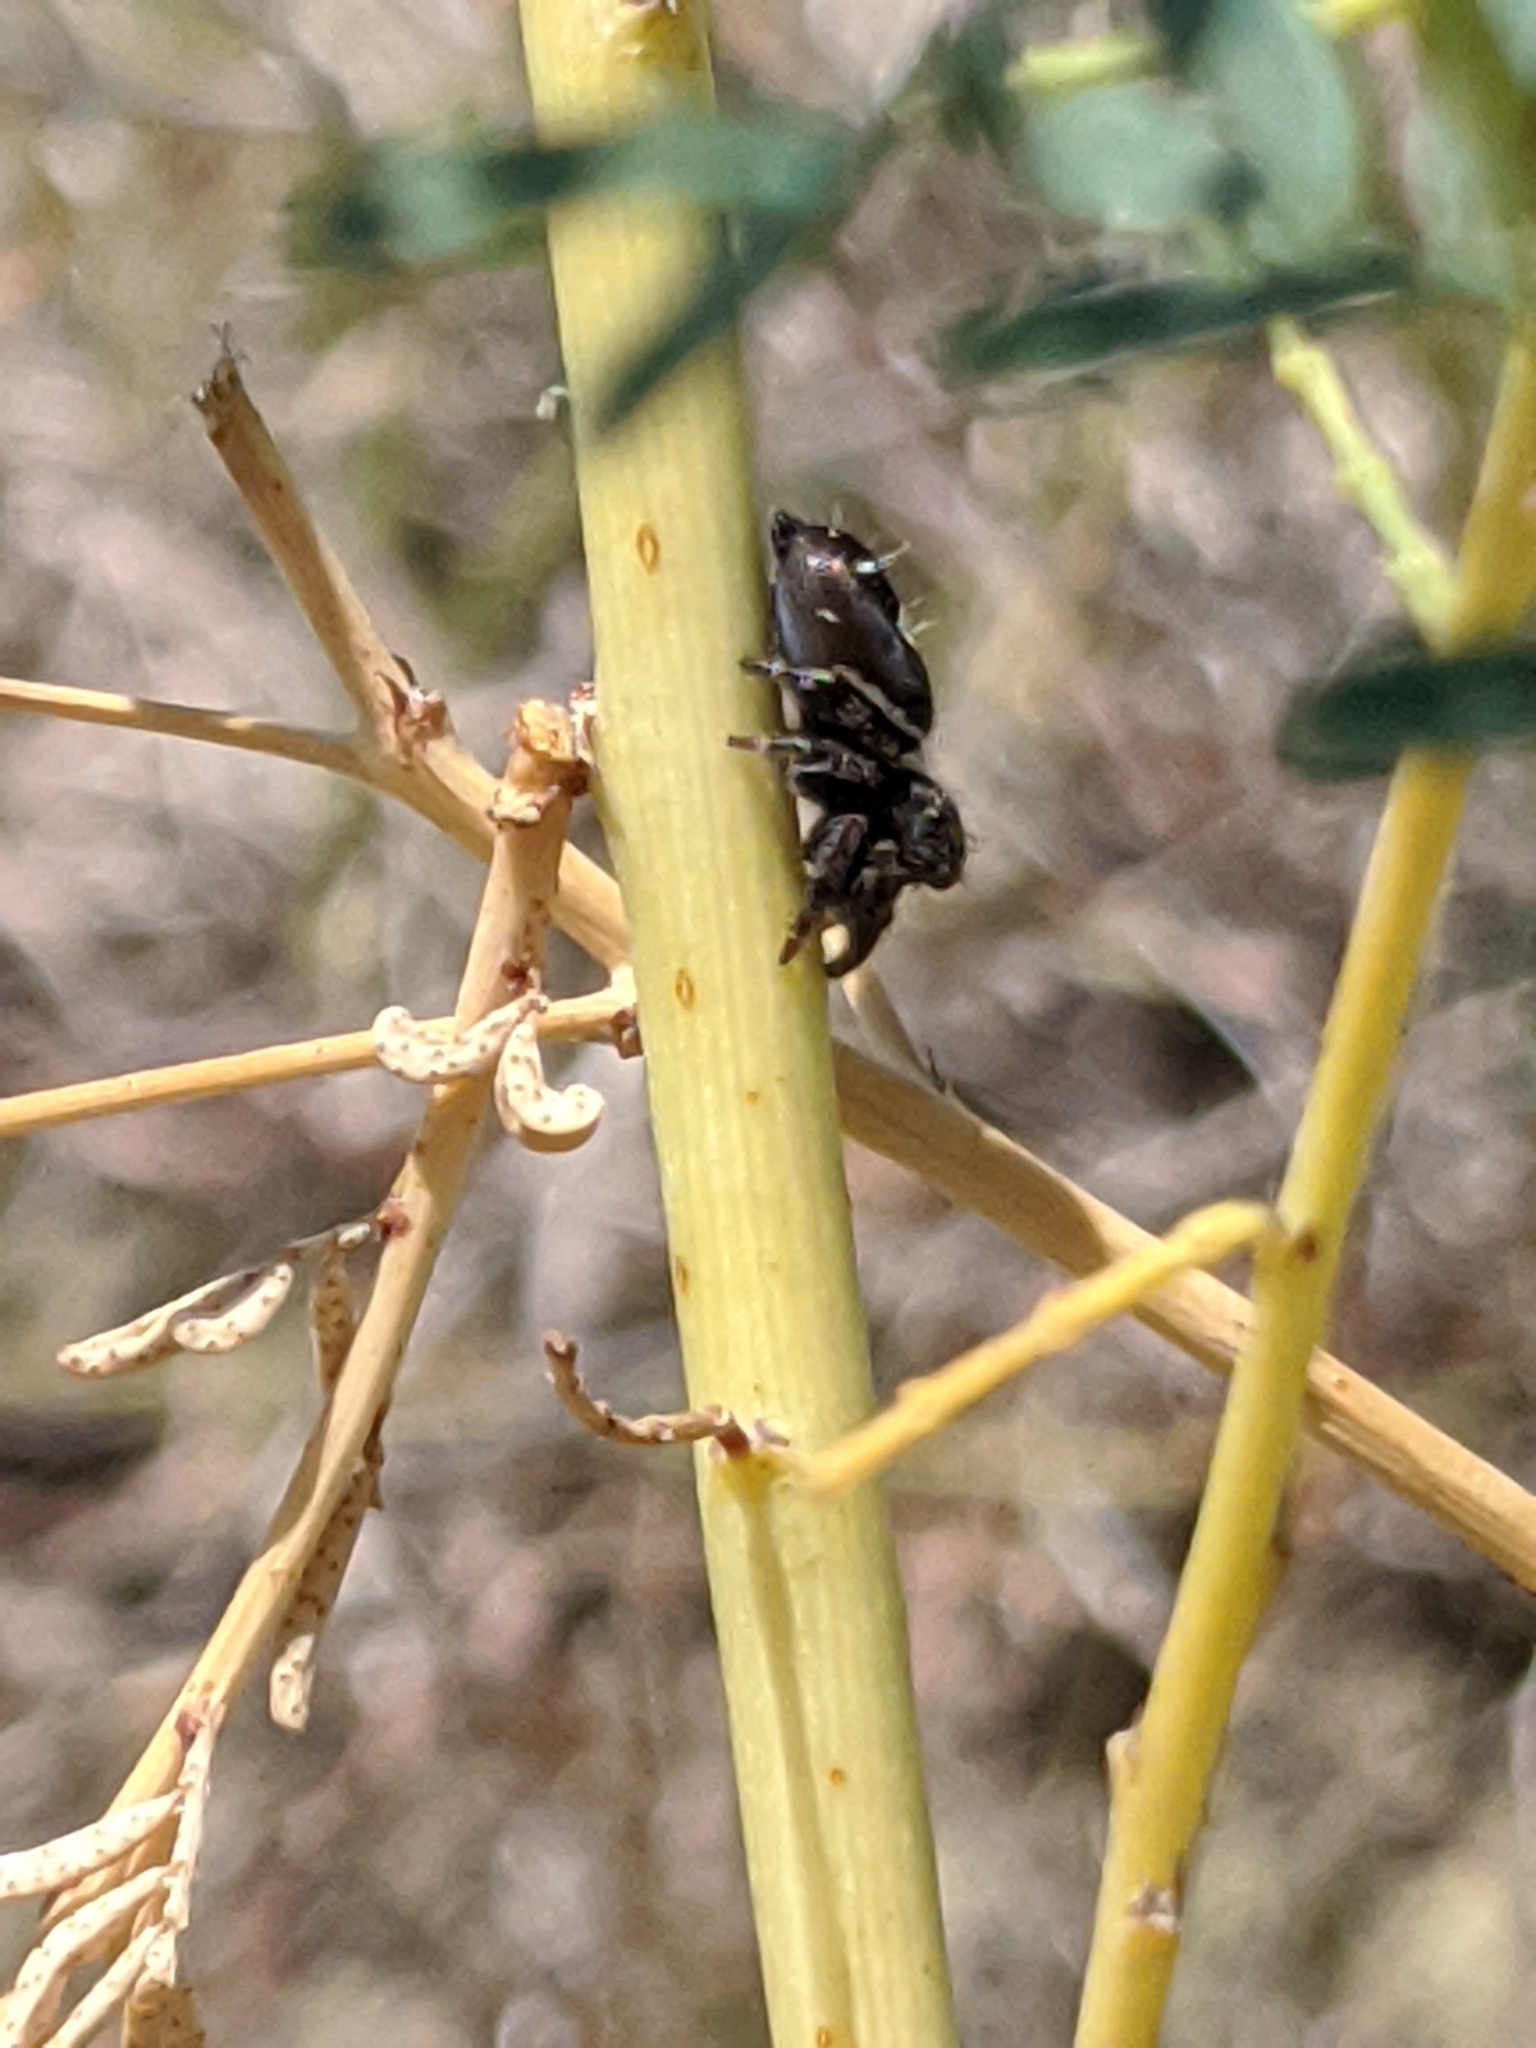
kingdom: Animalia
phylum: Arthropoda
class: Arachnida
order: Araneae
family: Salticidae
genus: Phidippus
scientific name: Phidippus audax
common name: Bold jumper
